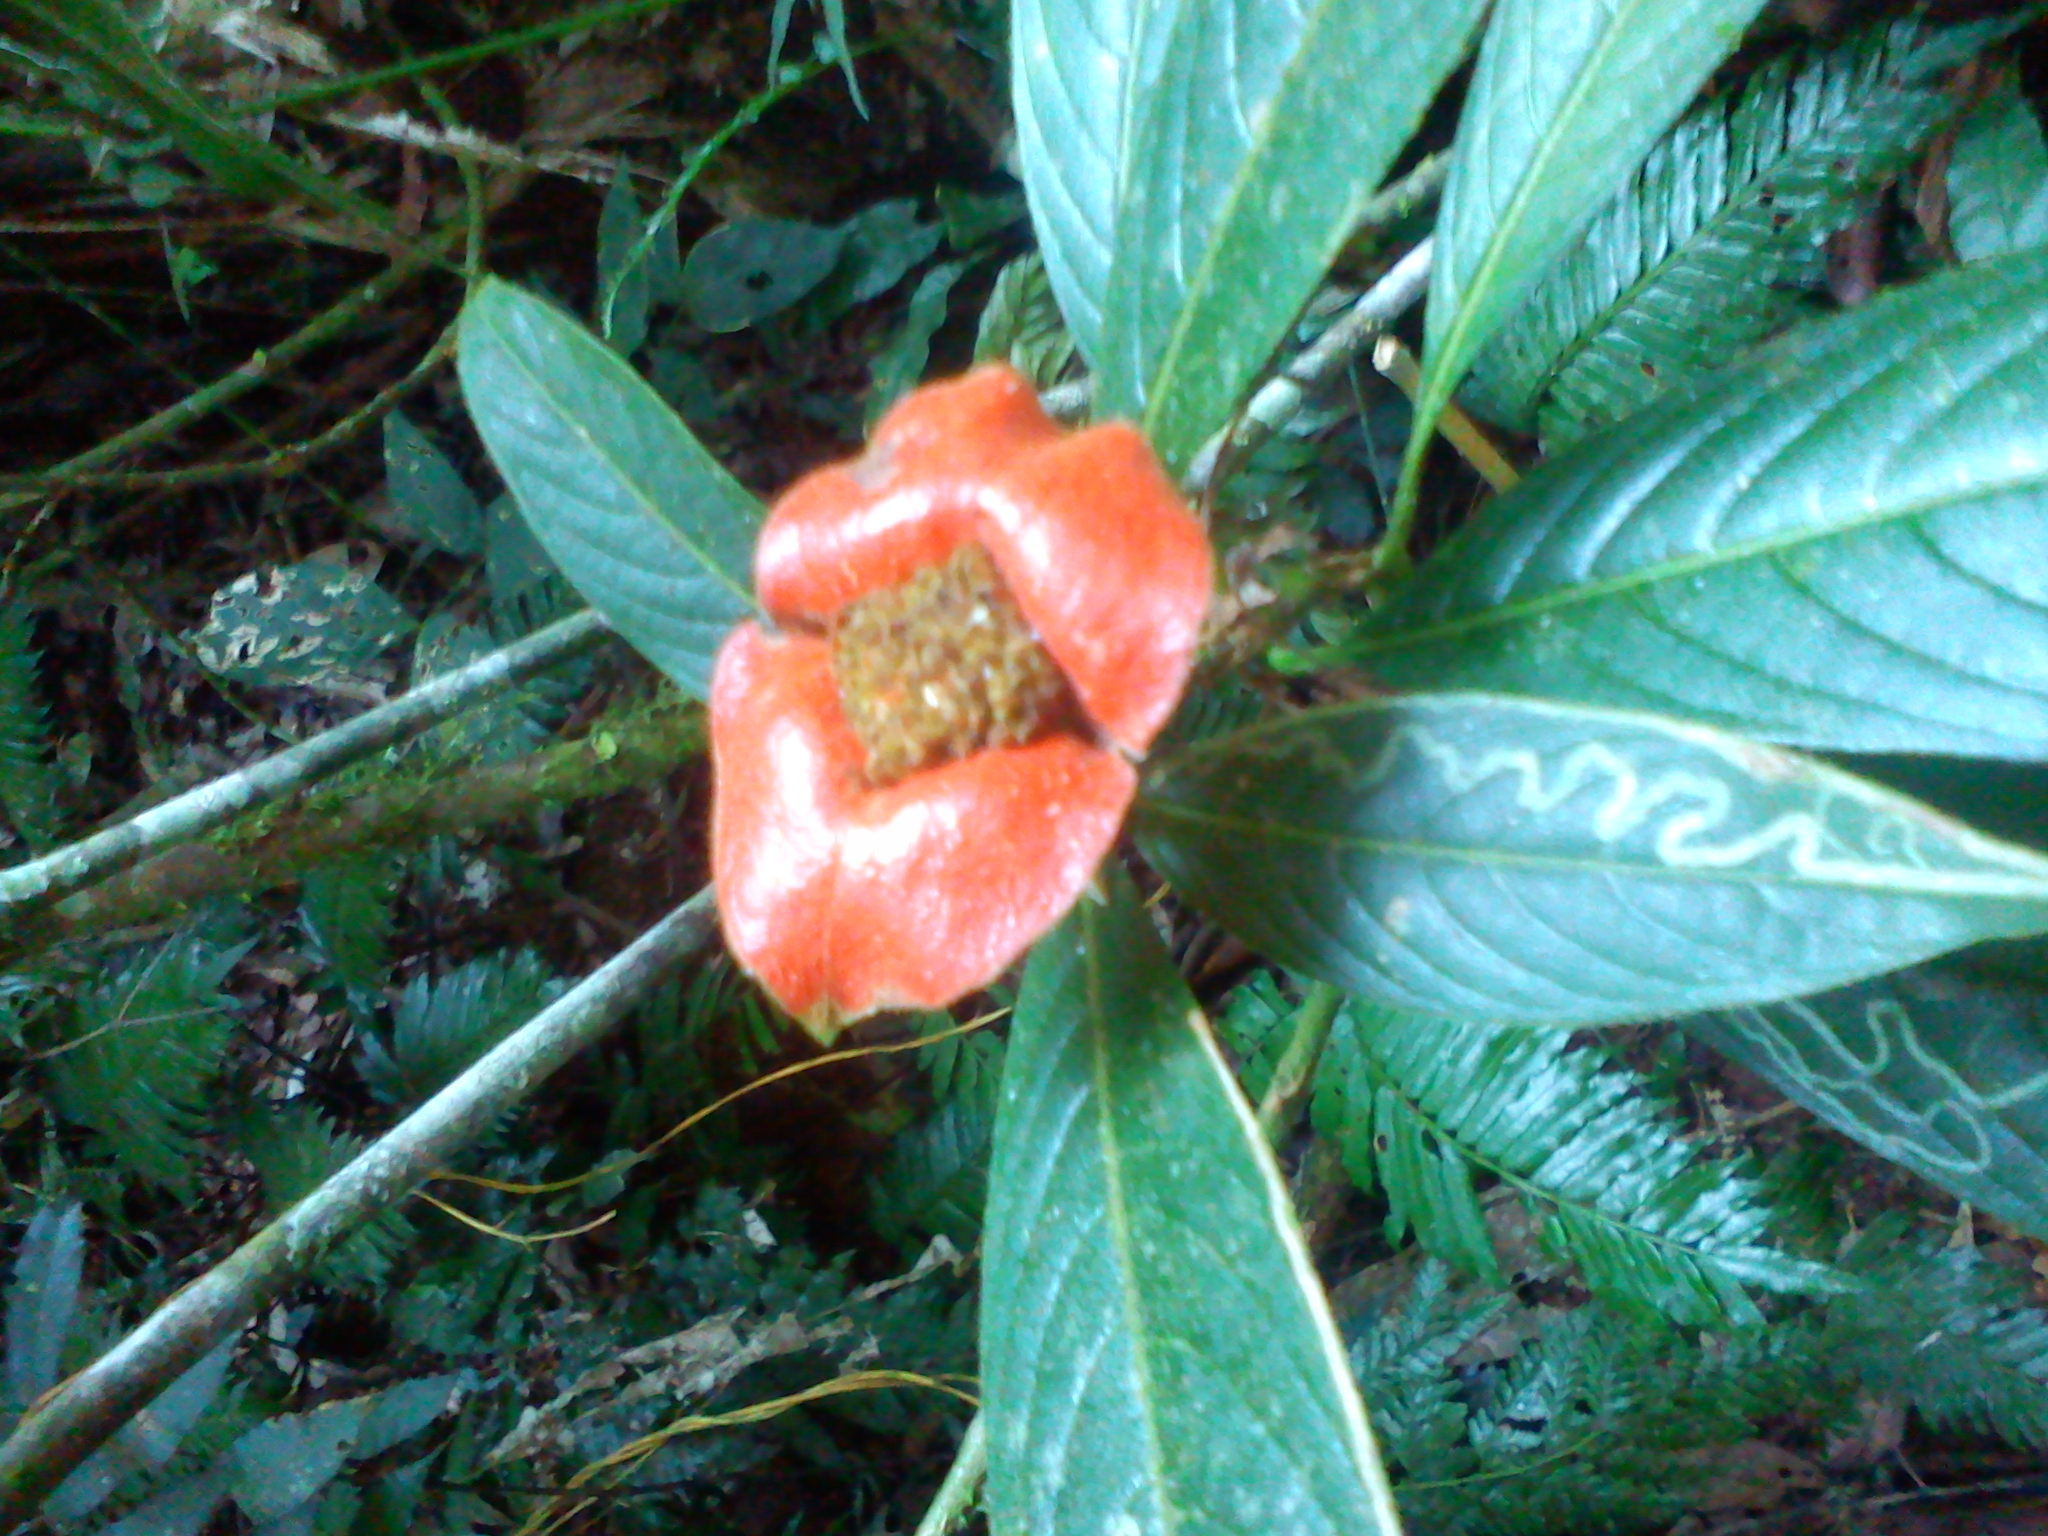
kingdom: Plantae
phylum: Tracheophyta
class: Magnoliopsida
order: Gentianales
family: Rubiaceae
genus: Palicourea
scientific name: Palicourea tomentosa
